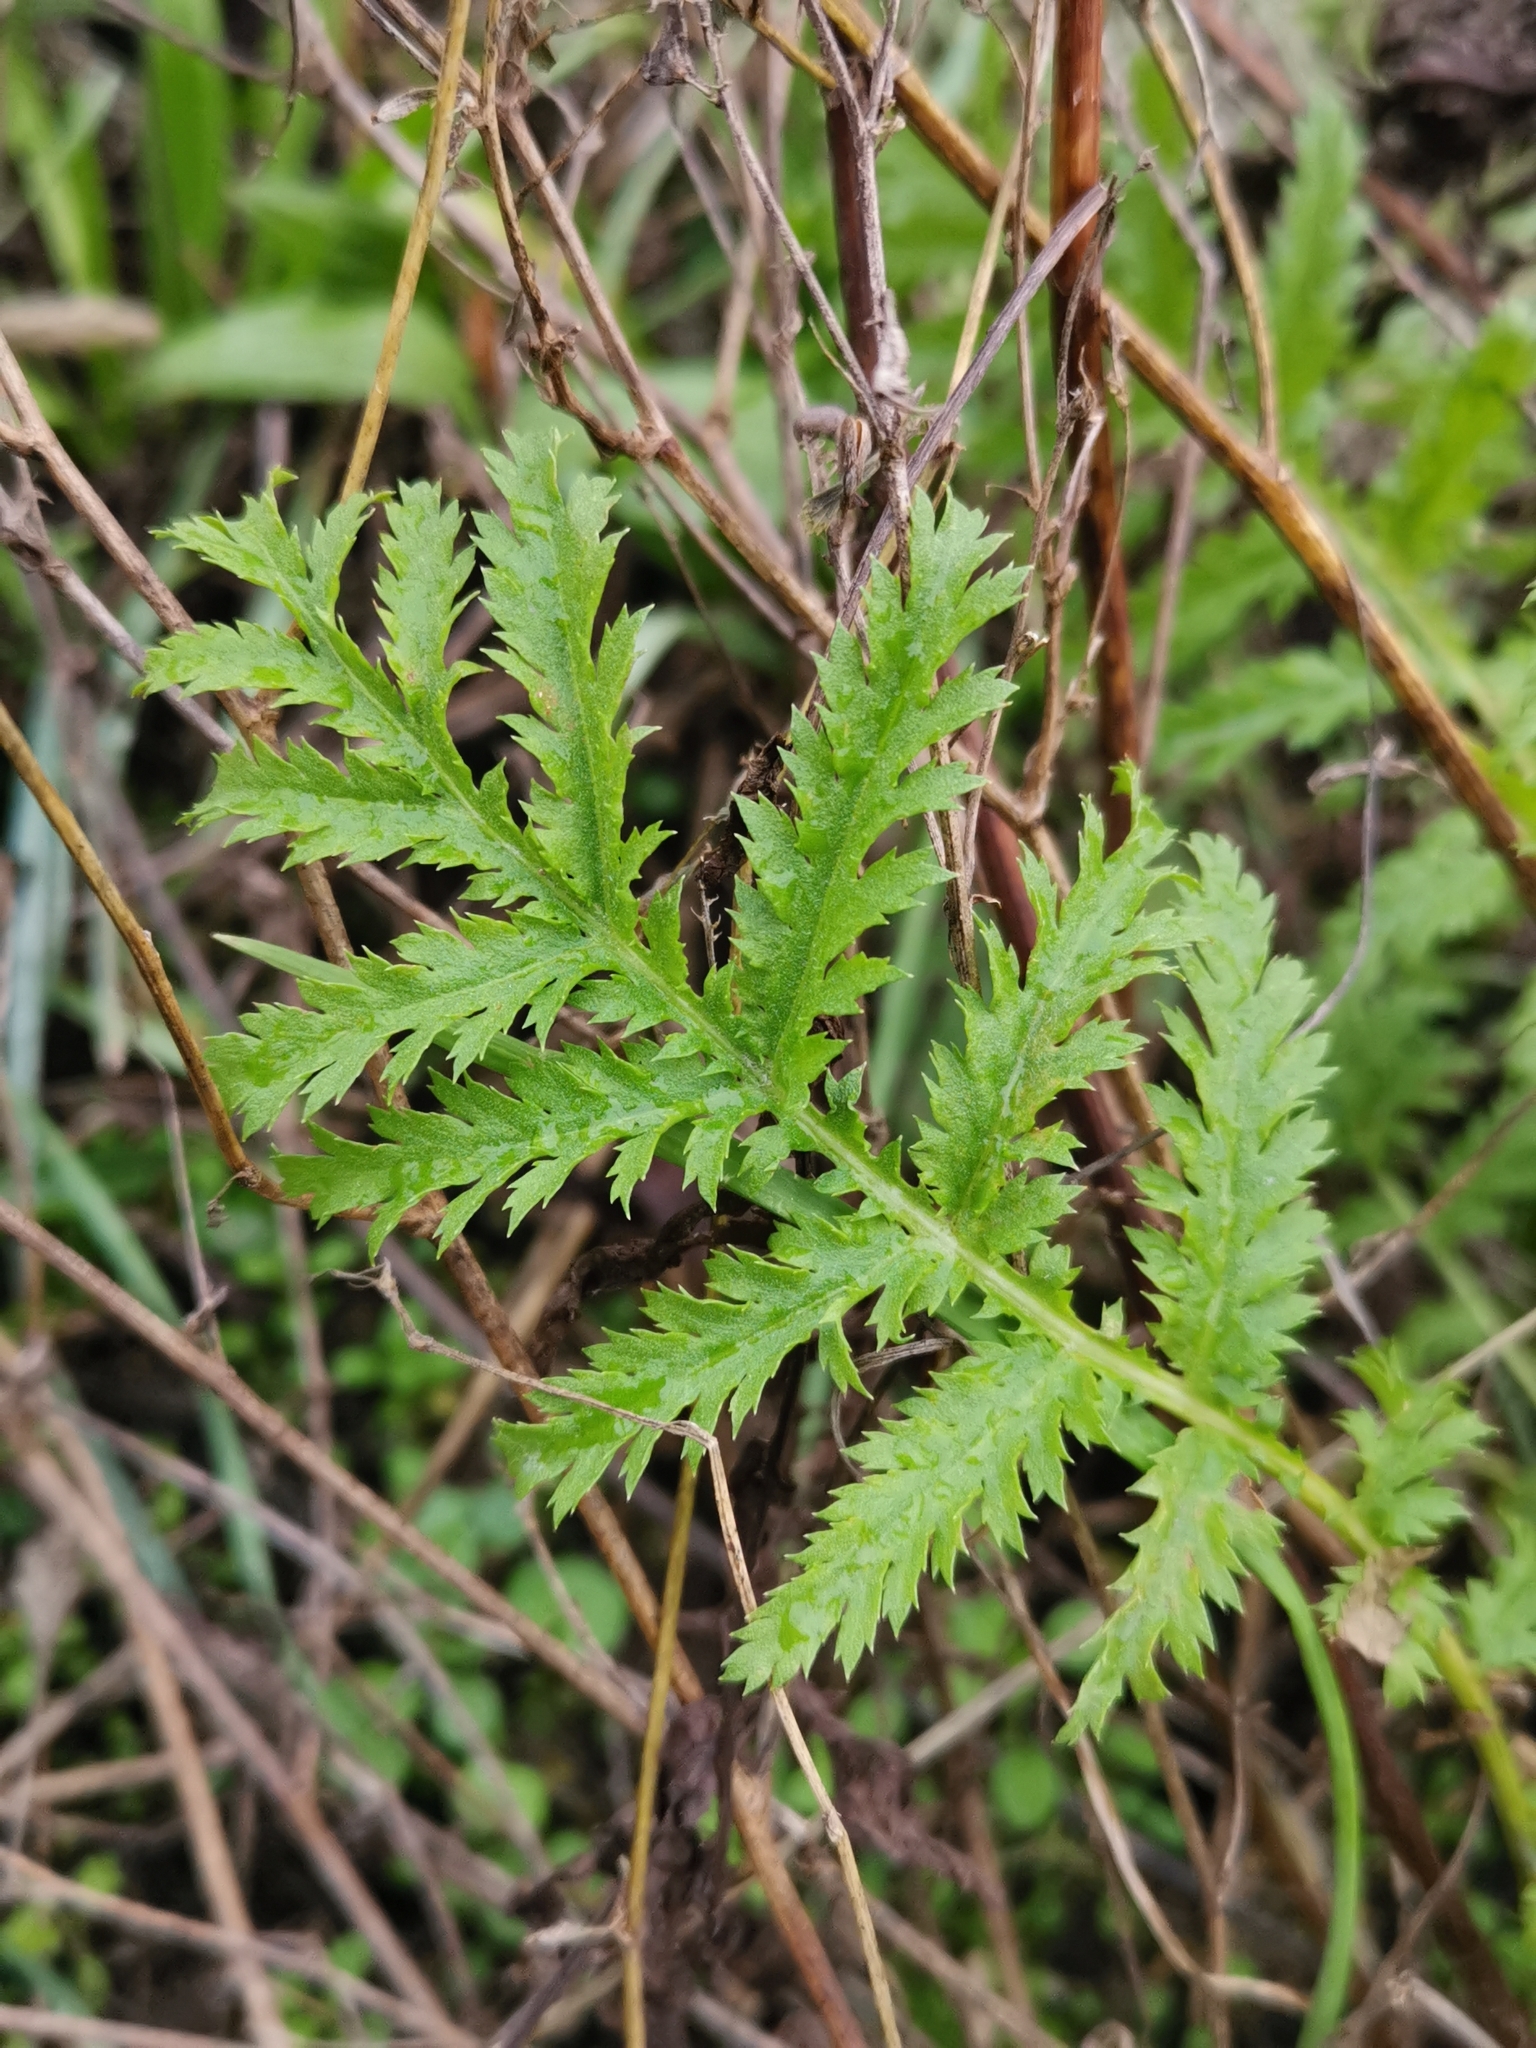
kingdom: Plantae
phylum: Tracheophyta
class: Magnoliopsida
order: Asterales
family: Asteraceae
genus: Tanacetum
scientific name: Tanacetum vulgare
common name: Common tansy
